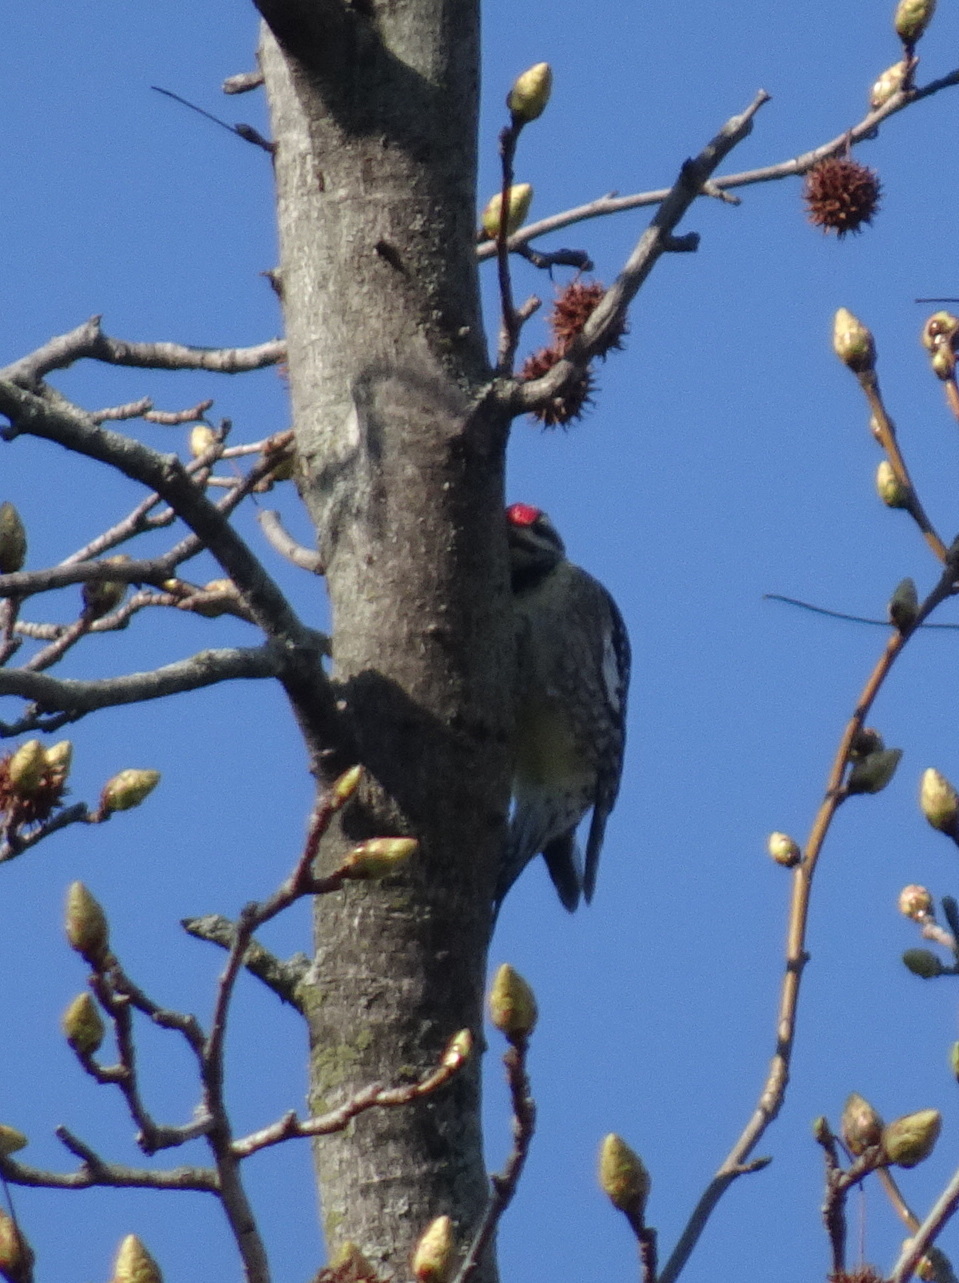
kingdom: Animalia
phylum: Chordata
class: Aves
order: Piciformes
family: Picidae
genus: Sphyrapicus
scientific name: Sphyrapicus varius
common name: Yellow-bellied sapsucker
